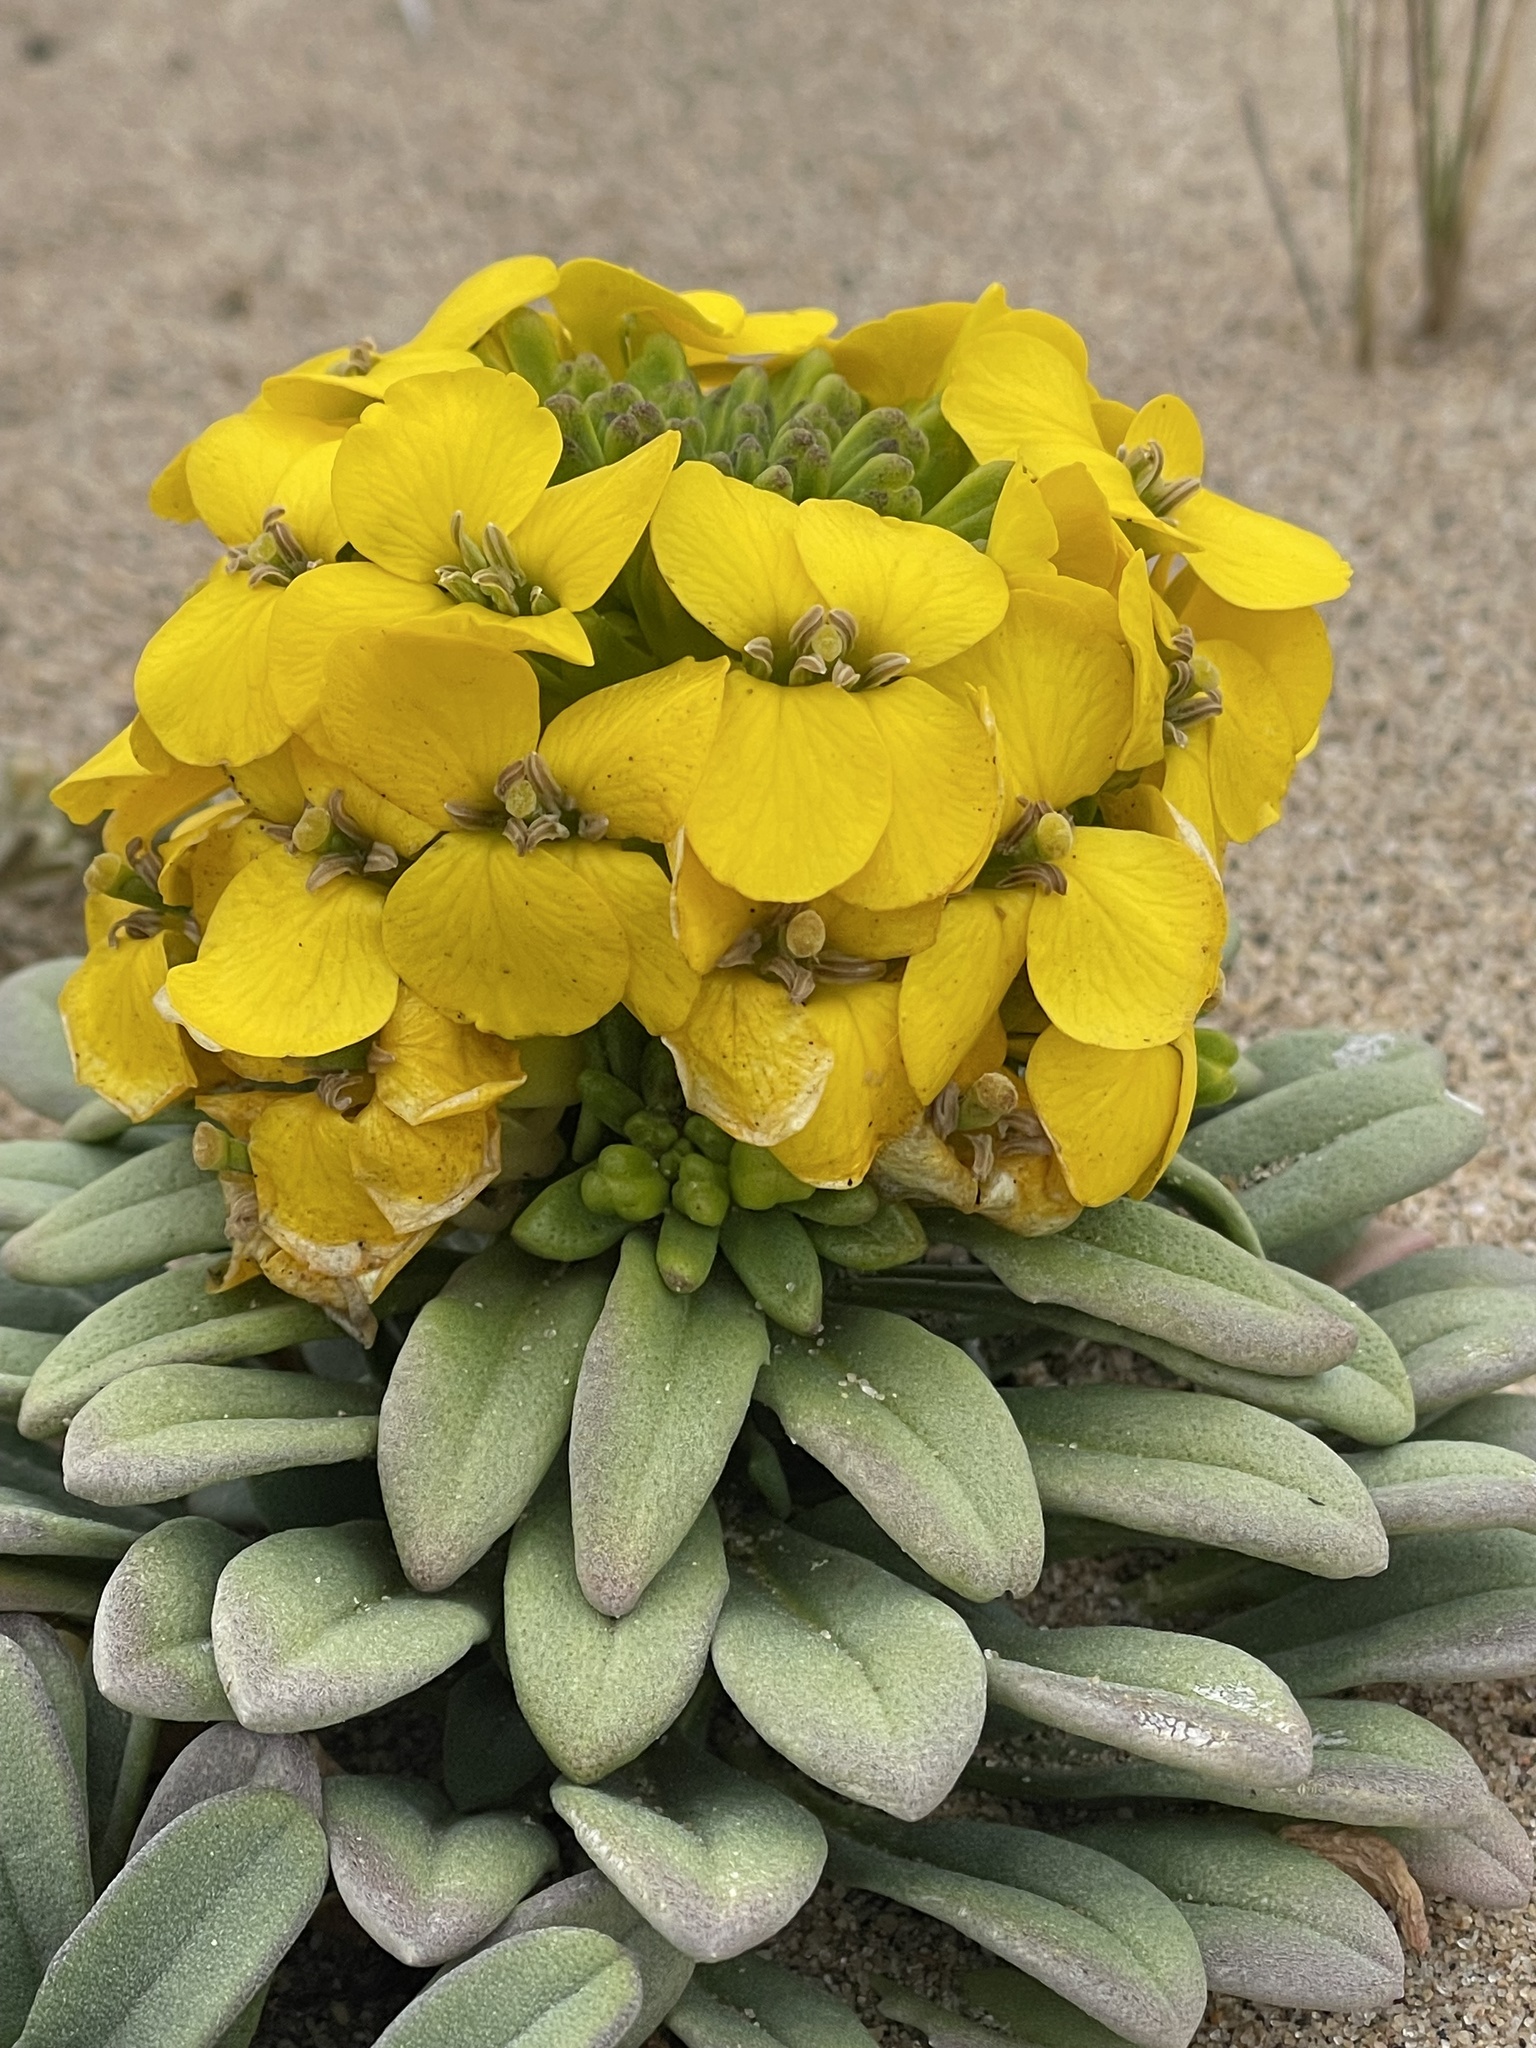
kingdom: Plantae
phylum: Tracheophyta
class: Magnoliopsida
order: Brassicales
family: Brassicaceae
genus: Erysimum
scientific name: Erysimum menziesii
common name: Menzies's wallflower
